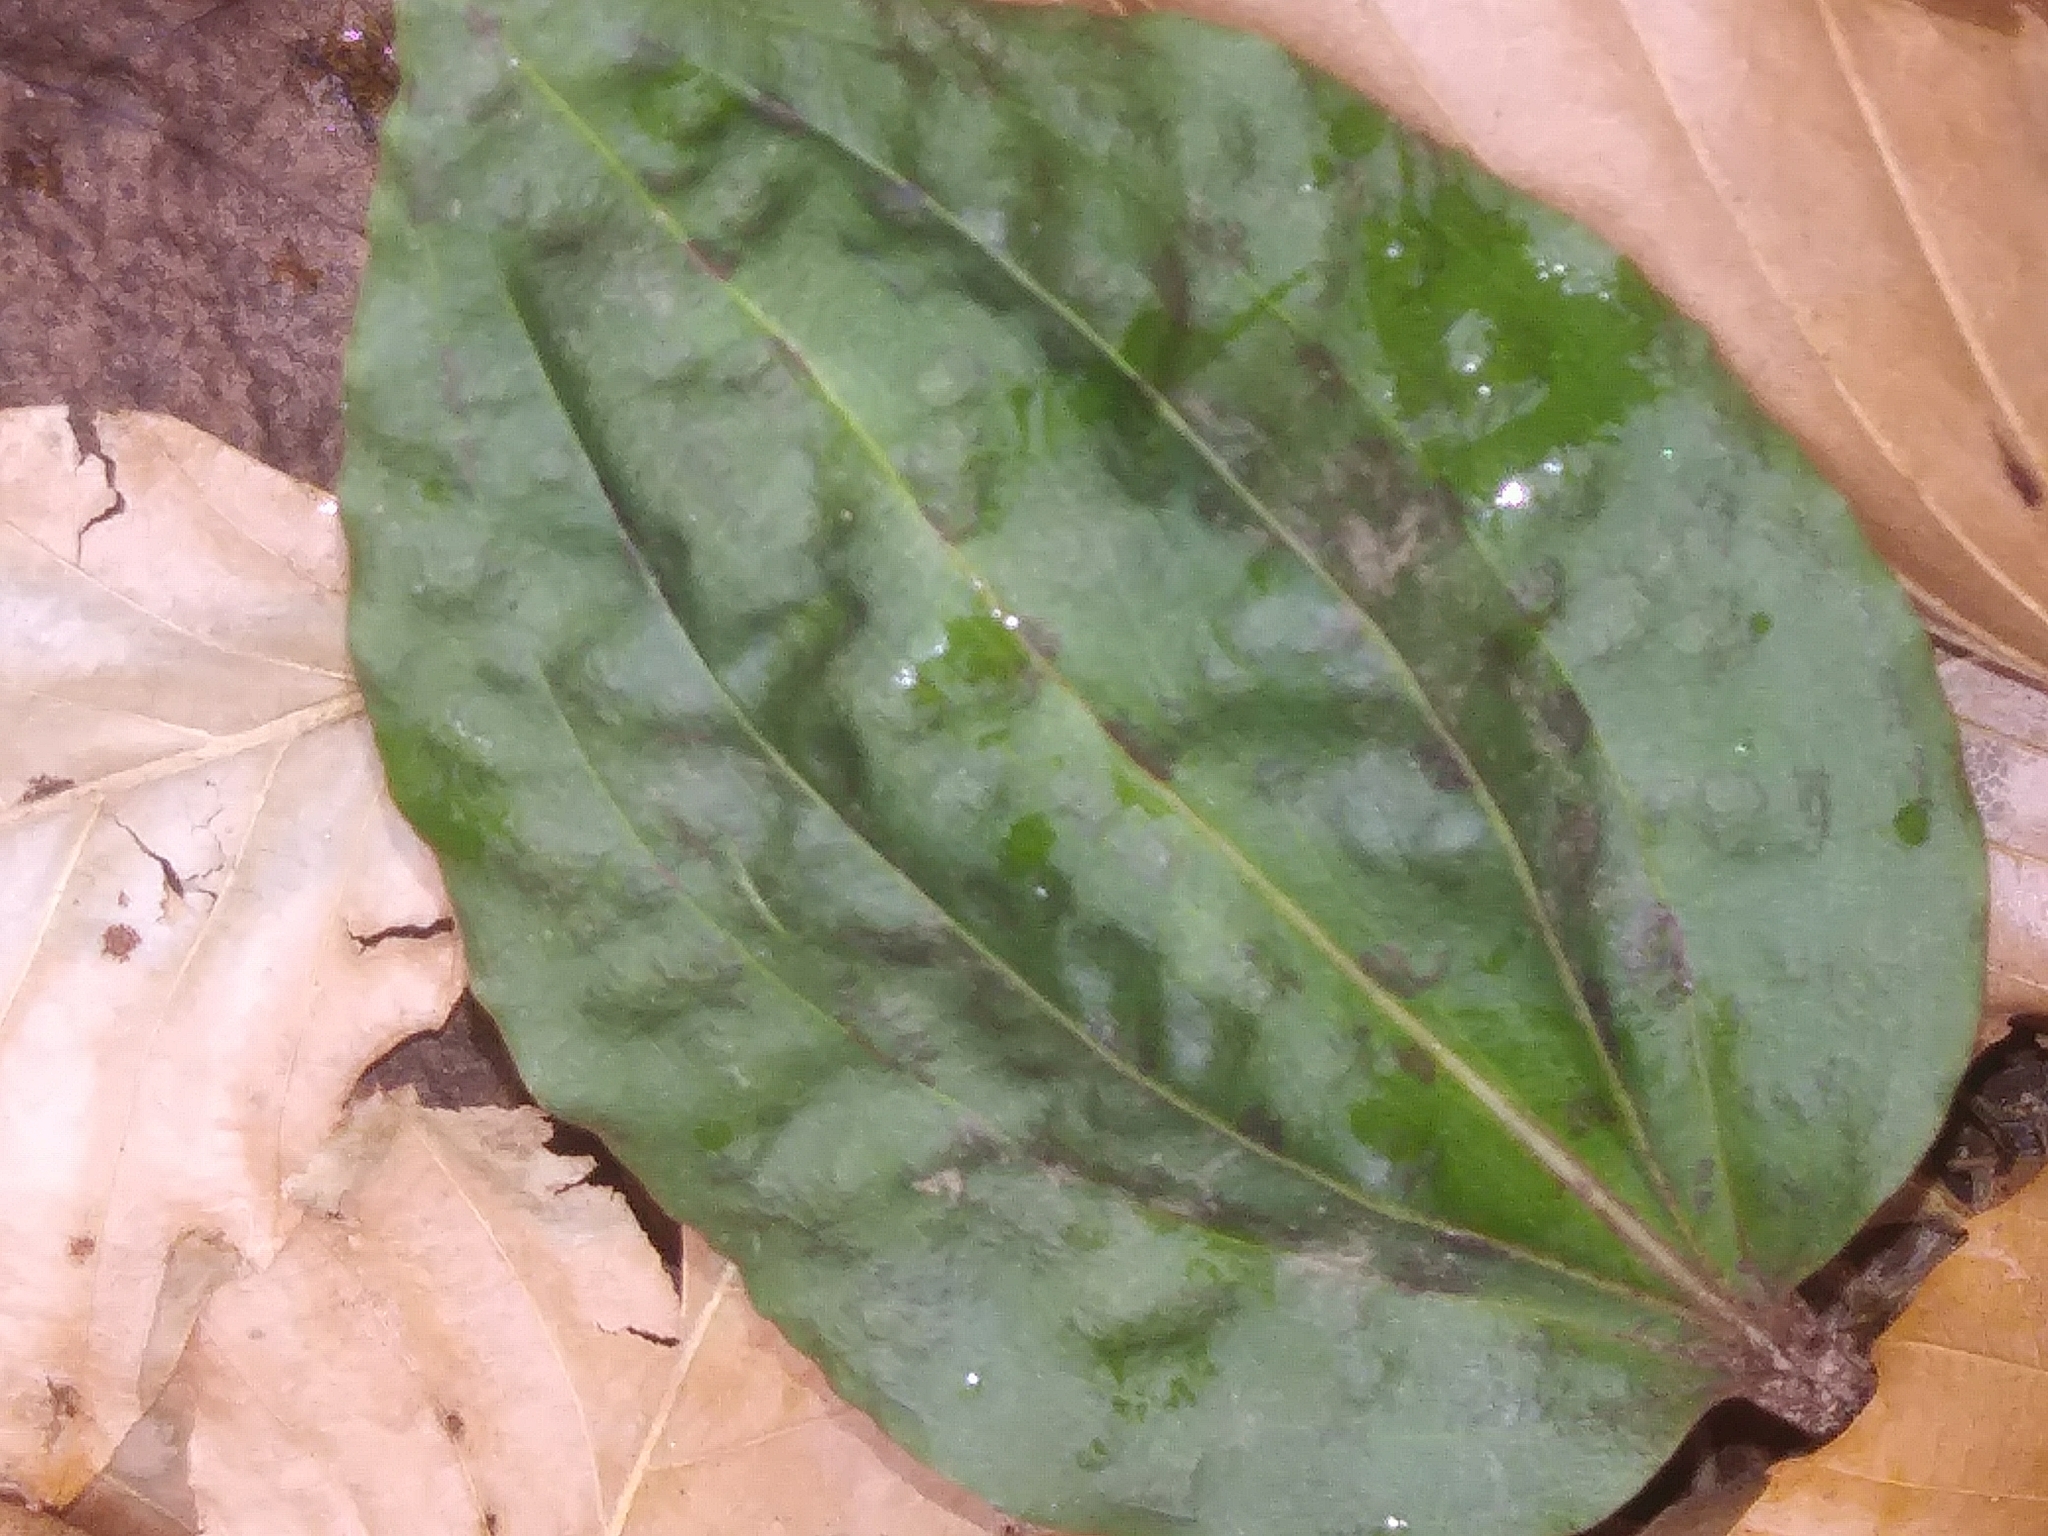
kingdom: Plantae
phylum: Tracheophyta
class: Liliopsida
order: Asparagales
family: Orchidaceae
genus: Tipularia
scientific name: Tipularia discolor
